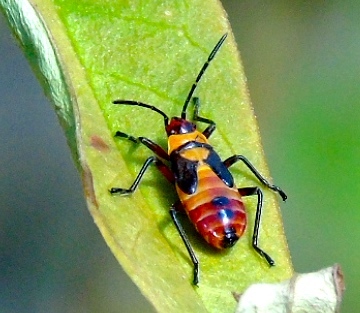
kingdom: Animalia
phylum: Arthropoda
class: Insecta
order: Hemiptera
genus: Erythrischius
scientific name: Erythrischius
